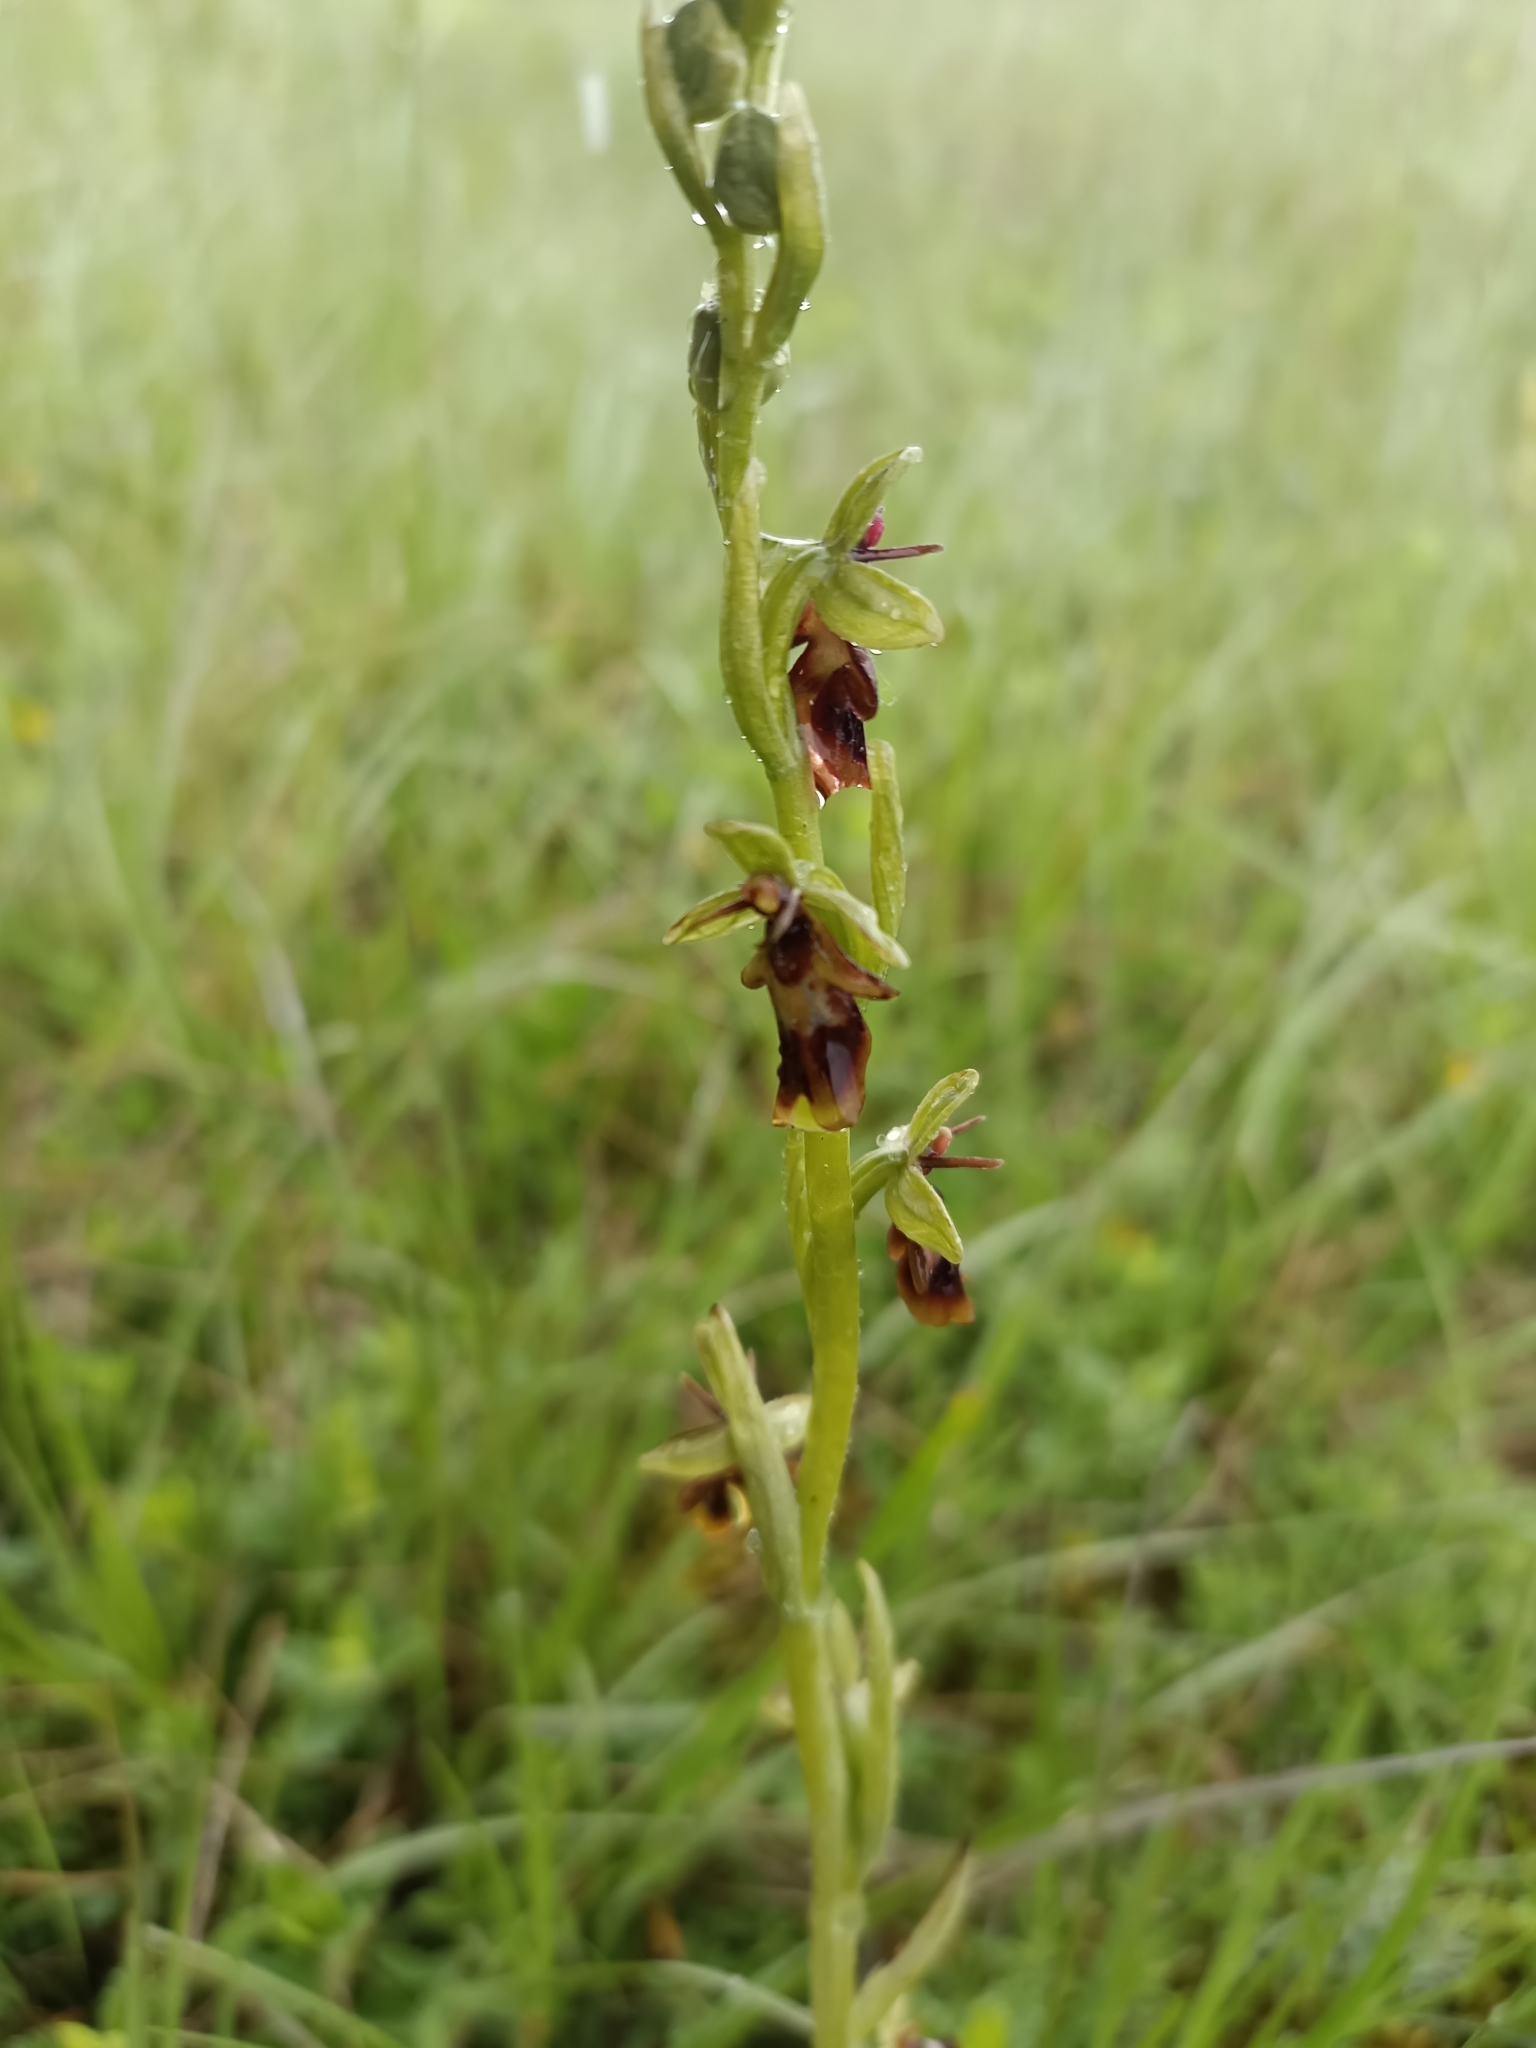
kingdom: Plantae
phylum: Tracheophyta
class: Liliopsida
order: Asparagales
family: Orchidaceae
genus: Ophrys
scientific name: Ophrys insectifera
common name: Fly orchid
